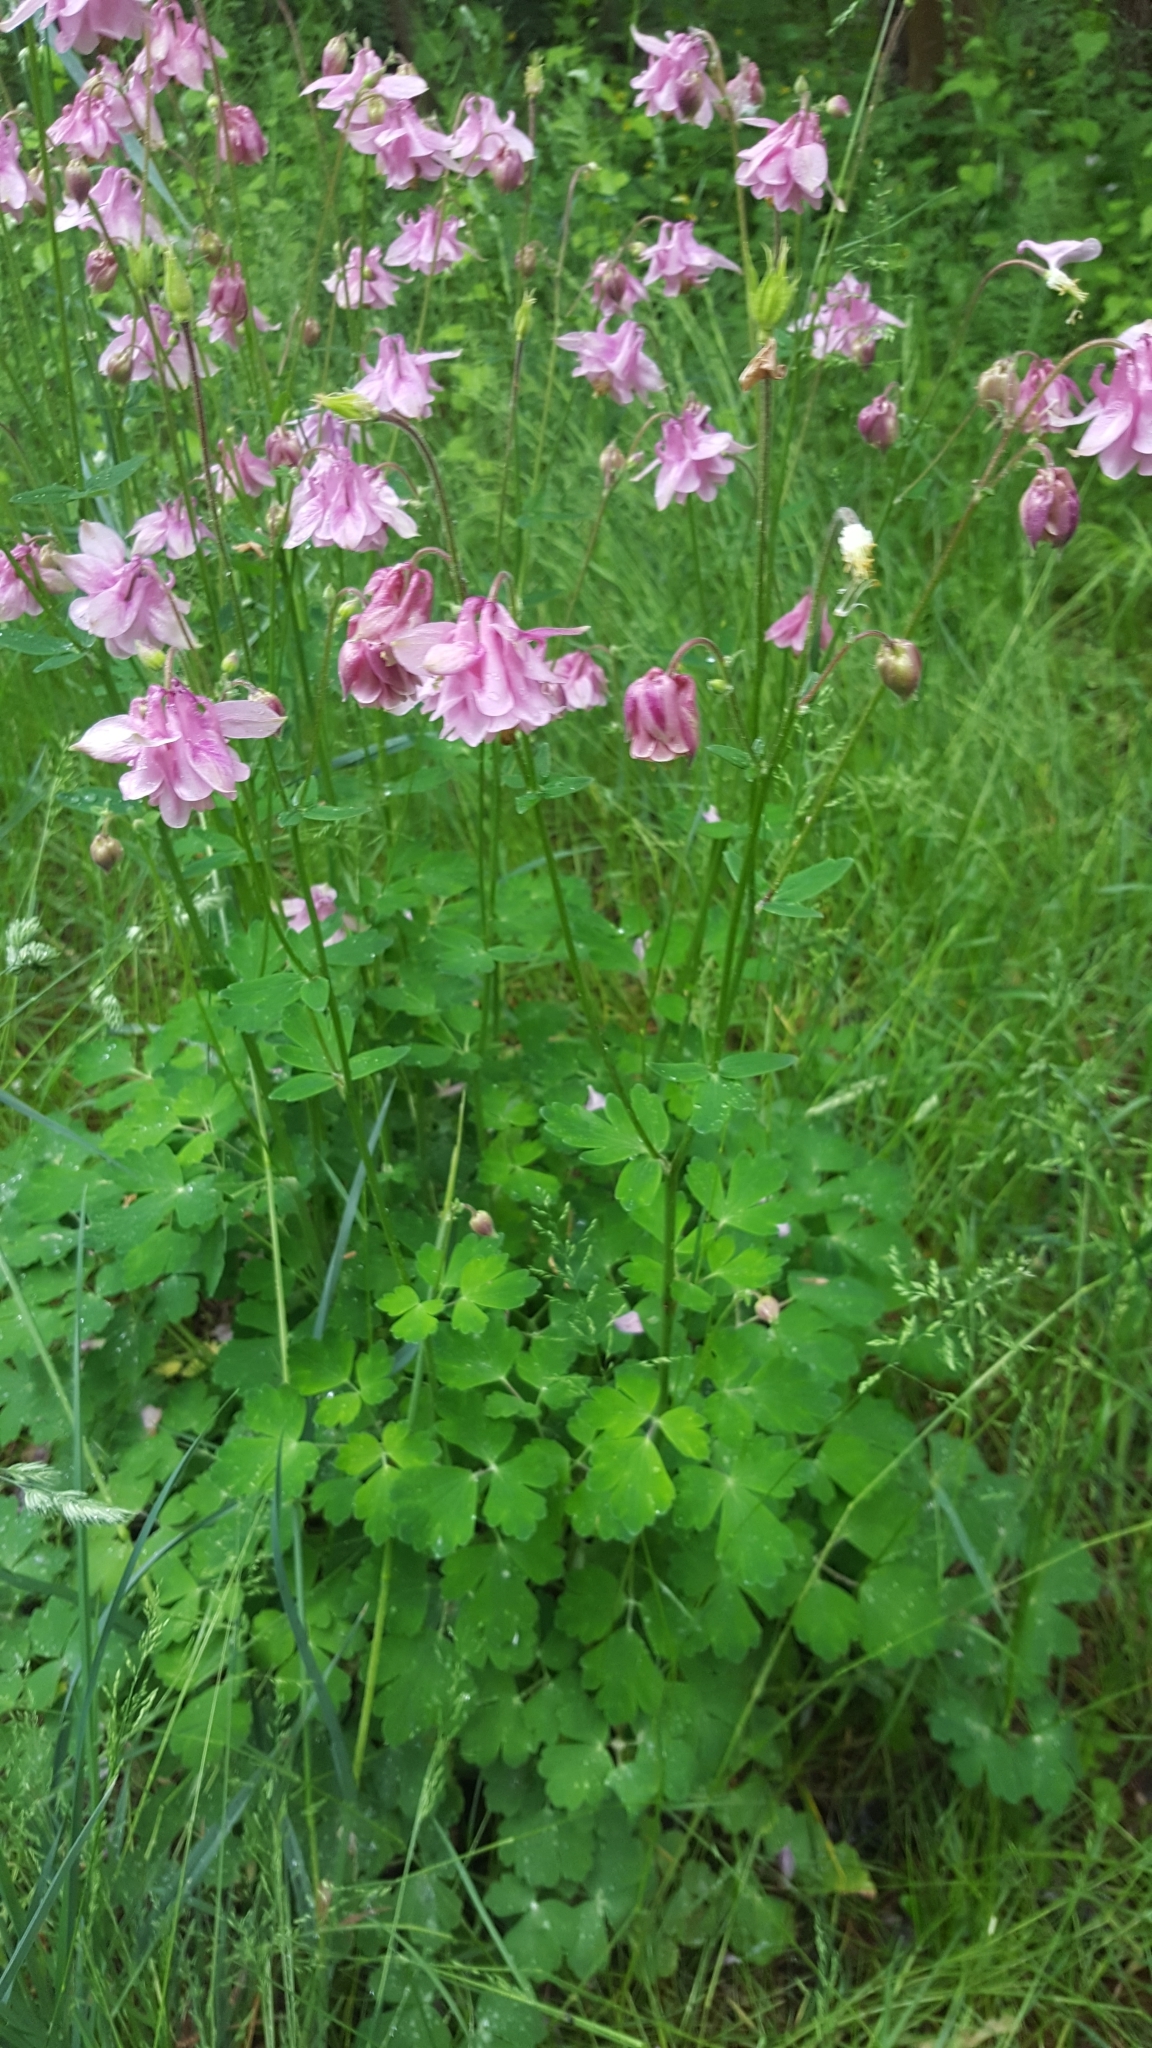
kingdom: Plantae
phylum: Tracheophyta
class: Magnoliopsida
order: Ranunculales
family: Ranunculaceae
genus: Aquilegia
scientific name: Aquilegia vulgaris
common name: Columbine
